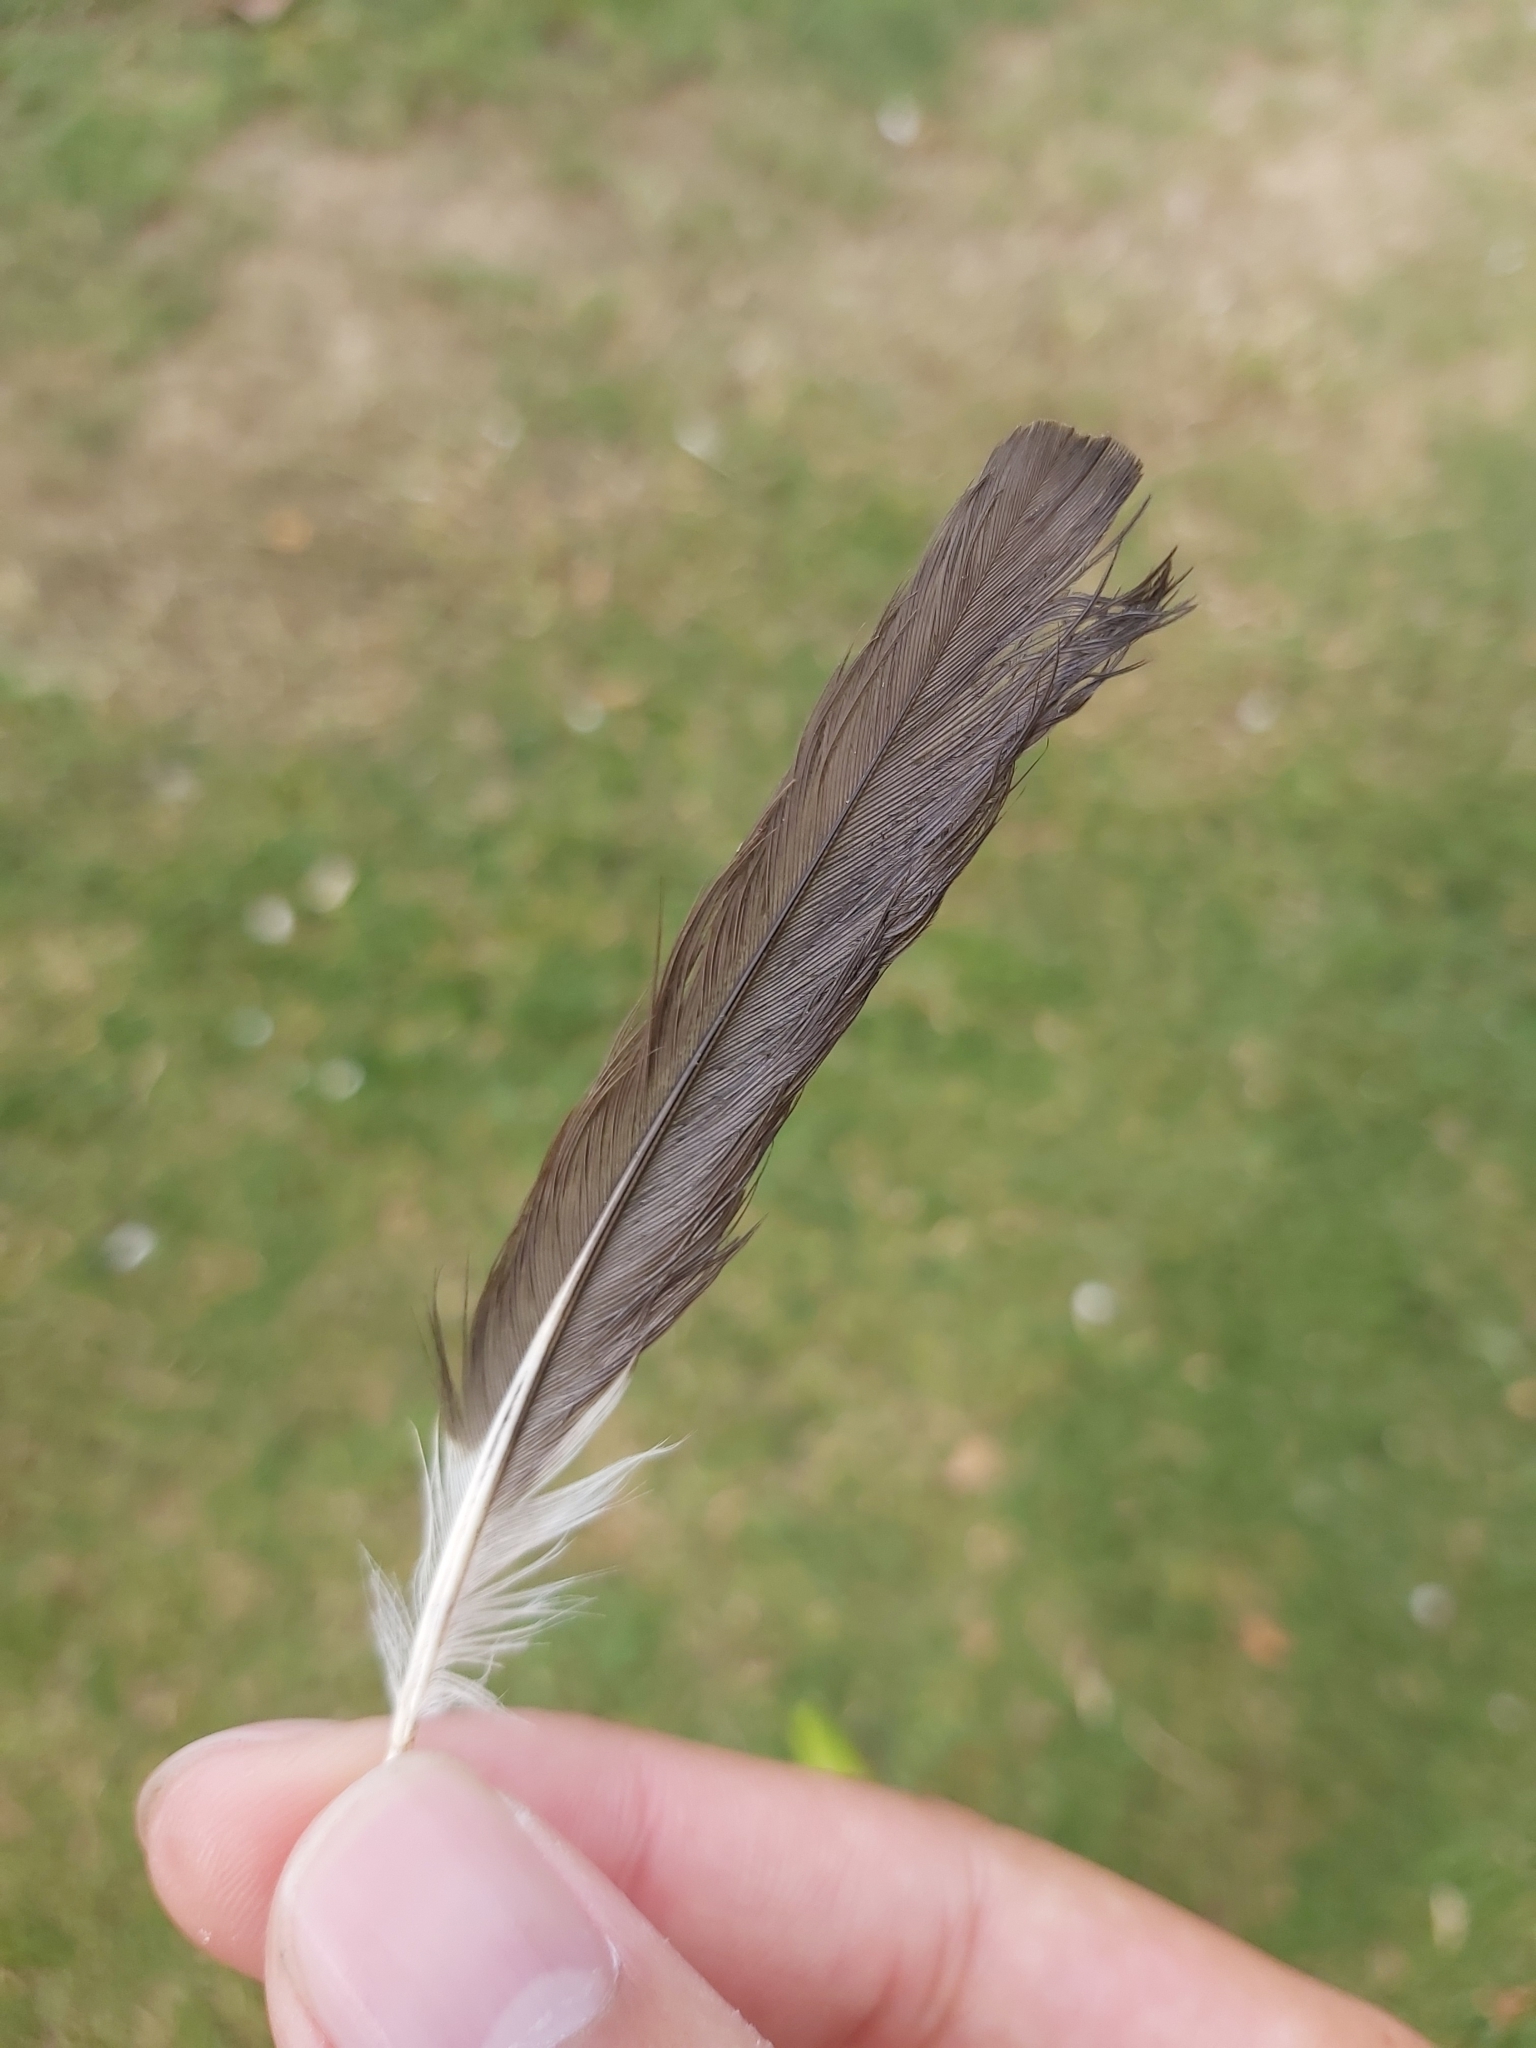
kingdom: Animalia
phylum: Chordata
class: Aves
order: Passeriformes
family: Sturnidae
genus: Acridotheres
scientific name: Acridotheres tristis
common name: Common myna
